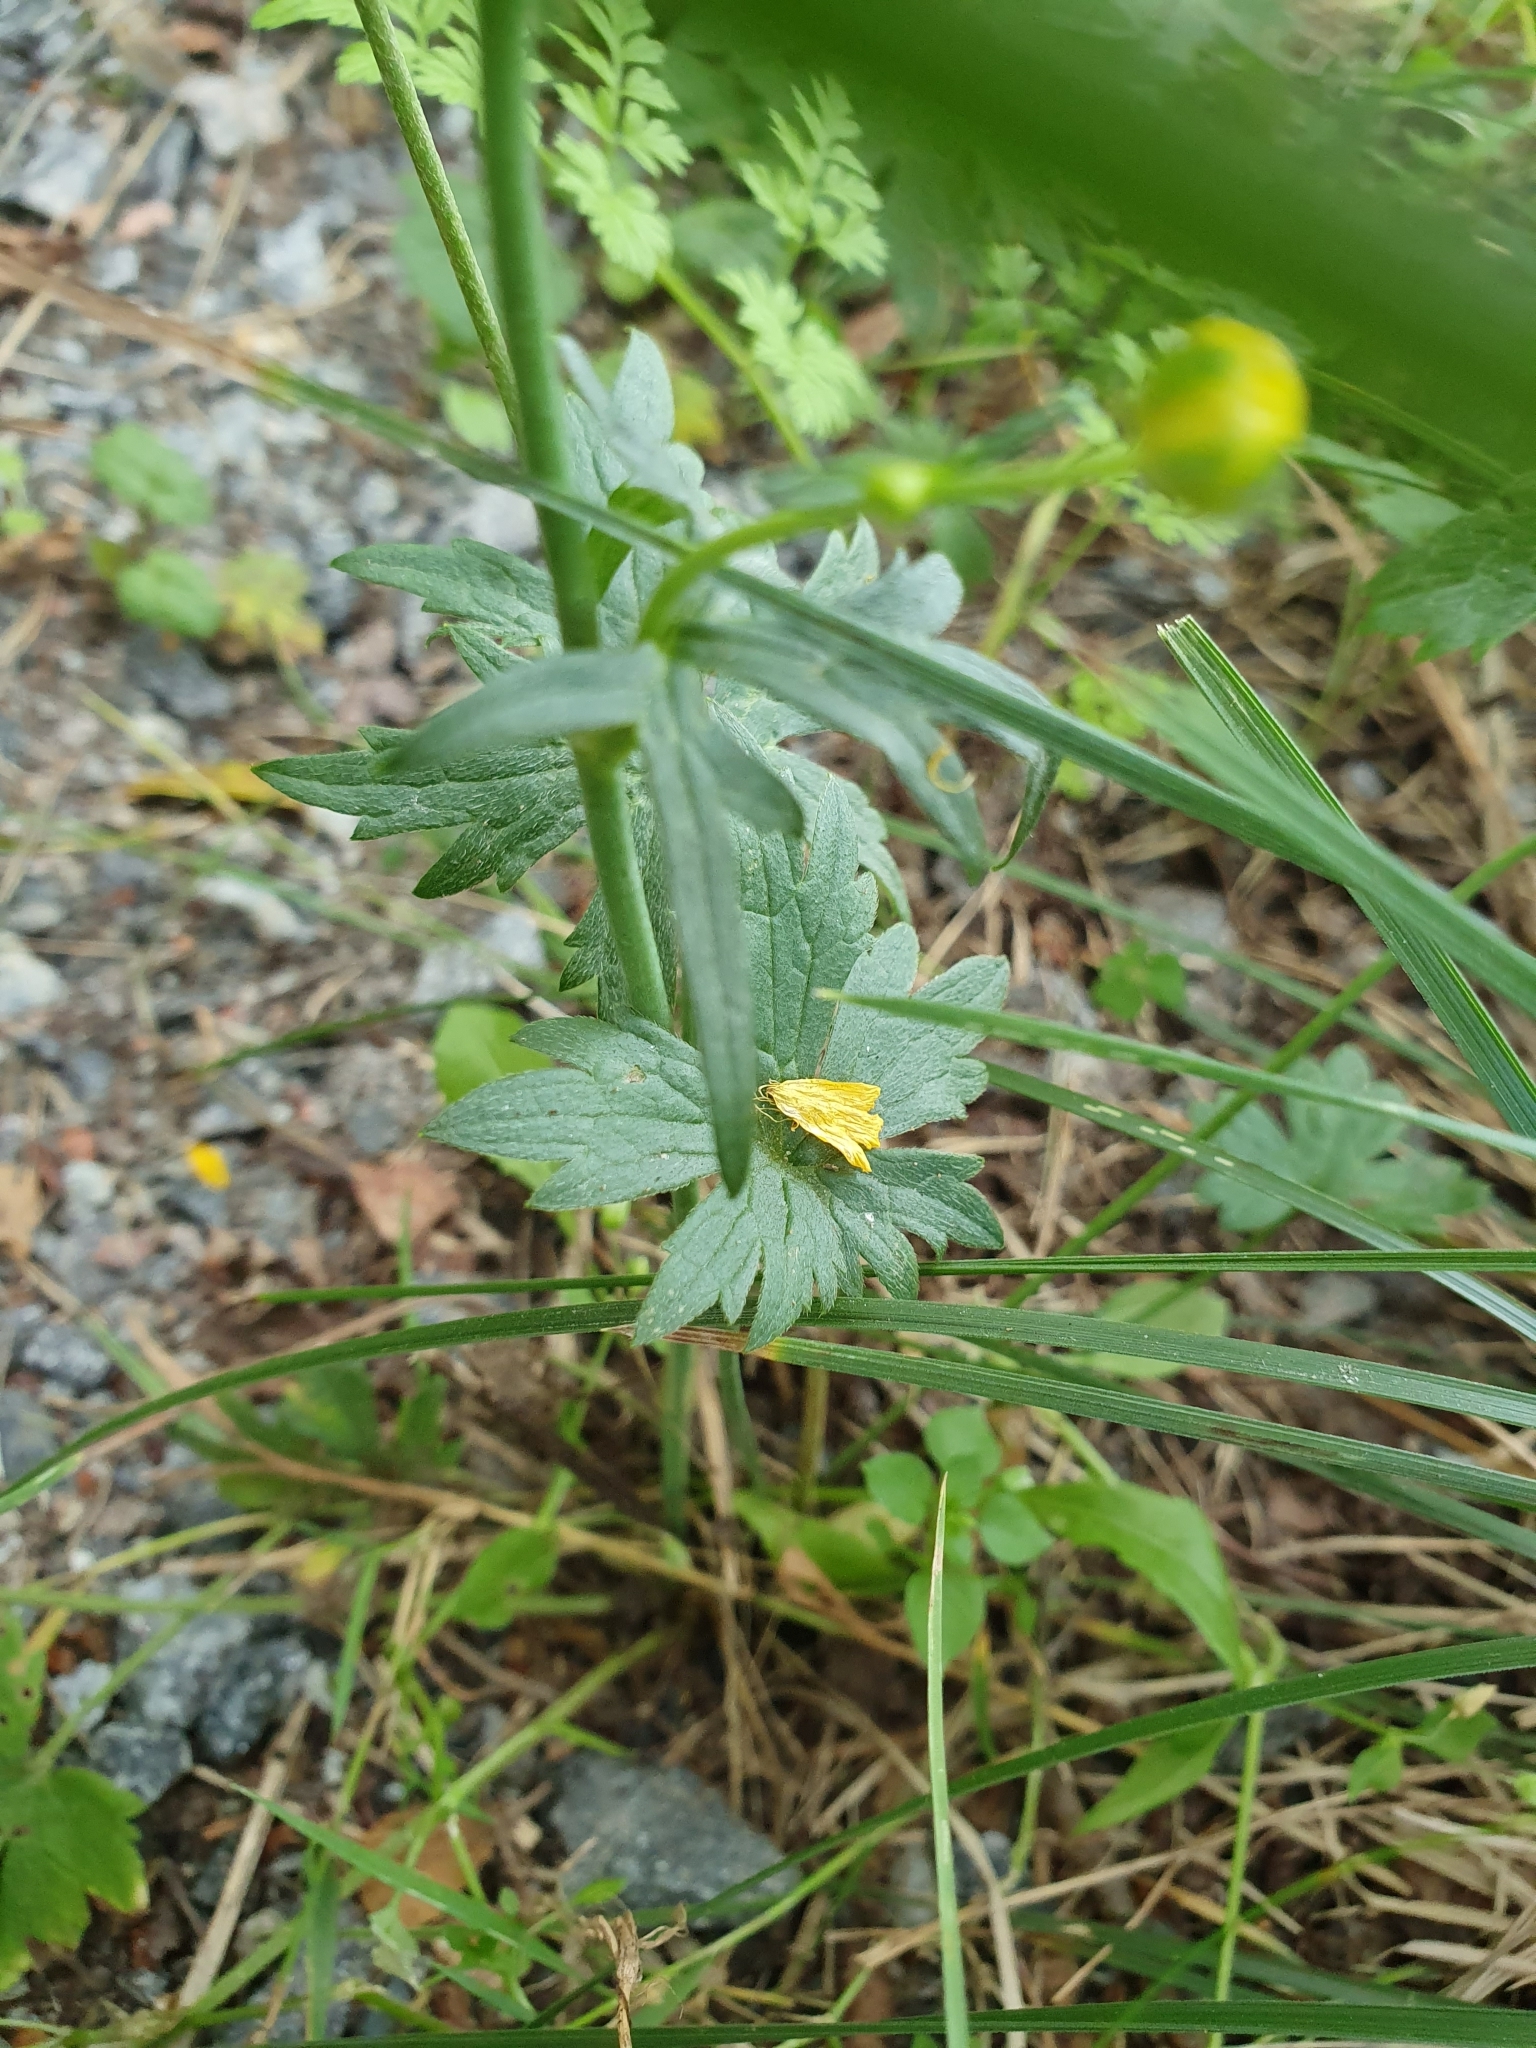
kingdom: Plantae
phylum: Tracheophyta
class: Magnoliopsida
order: Ranunculales
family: Ranunculaceae
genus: Ranunculus
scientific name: Ranunculus acris
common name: Meadow buttercup
